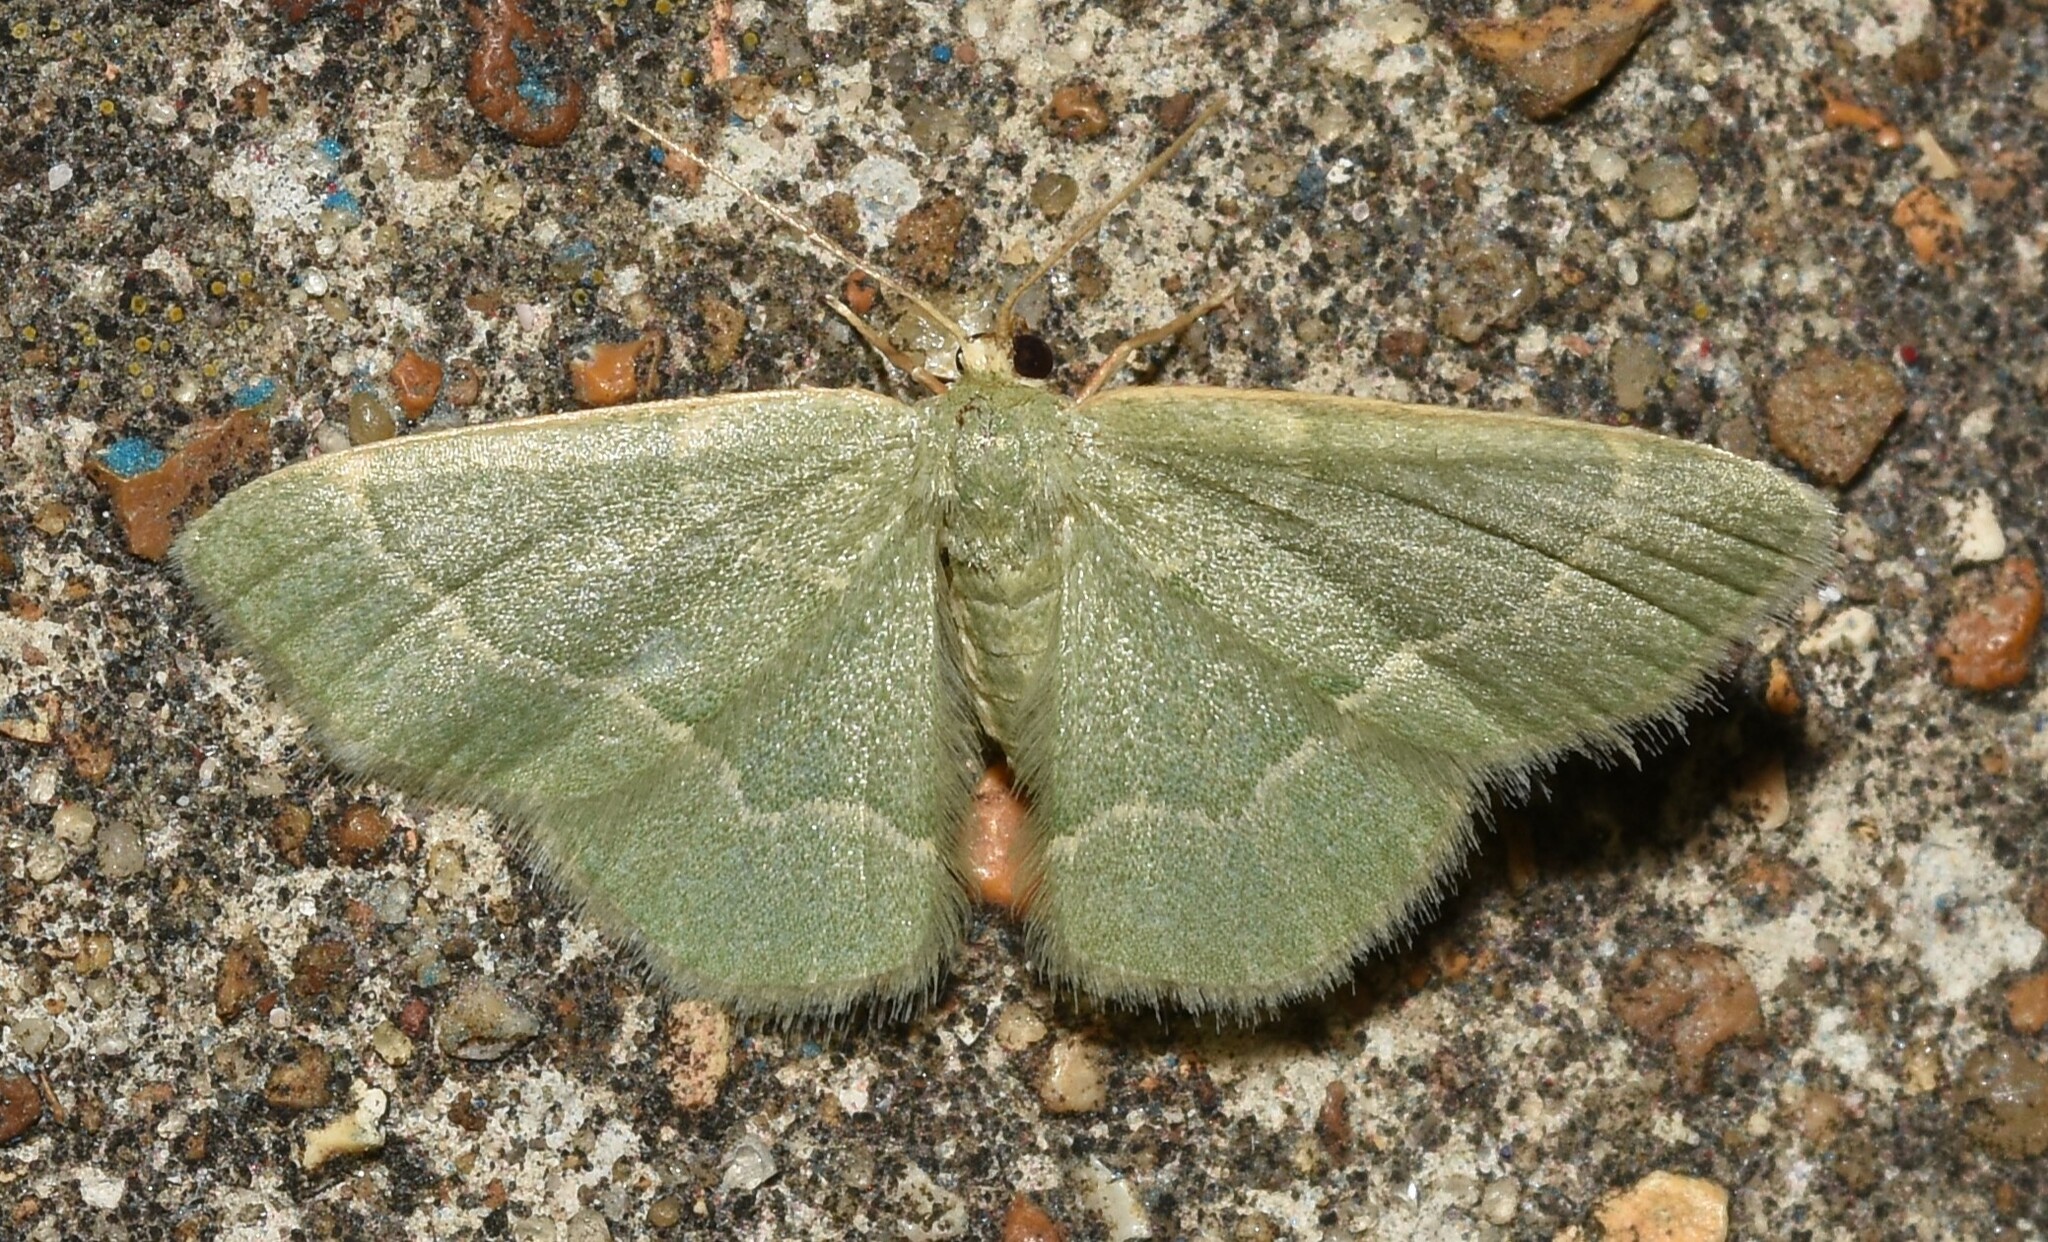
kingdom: Animalia
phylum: Arthropoda
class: Insecta
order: Lepidoptera
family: Geometridae
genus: Chlorochlamys
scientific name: Chlorochlamys phyllinaria
